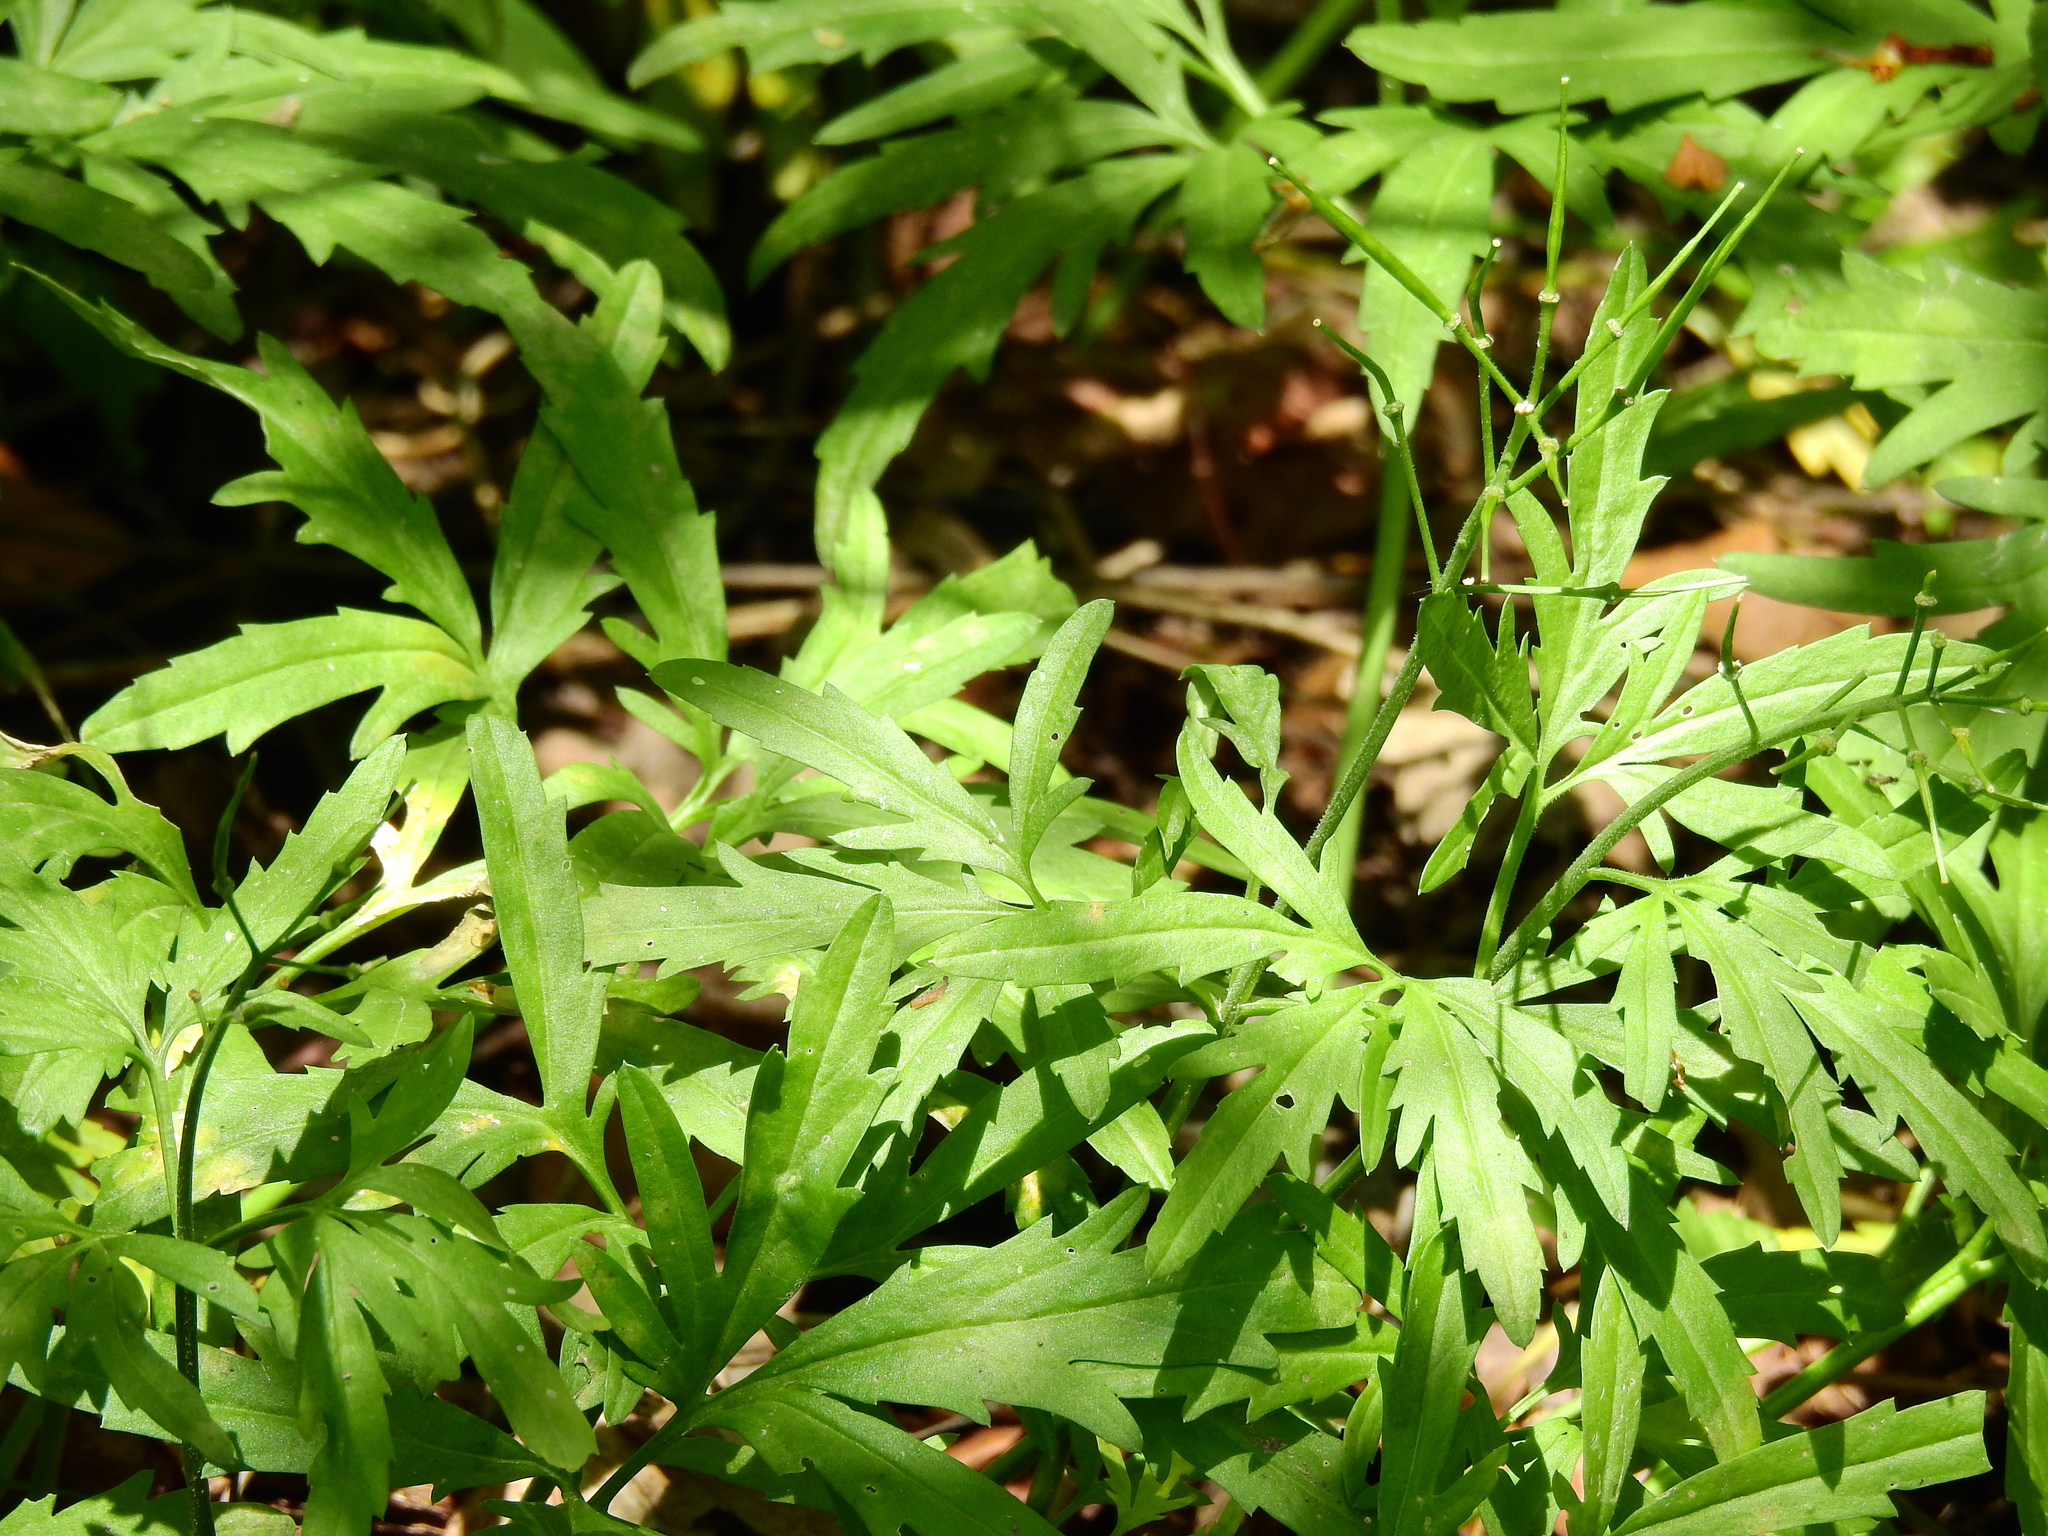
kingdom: Plantae
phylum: Tracheophyta
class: Magnoliopsida
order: Brassicales
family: Brassicaceae
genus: Cardamine
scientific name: Cardamine concatenata
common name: Cut-leaf toothcup
